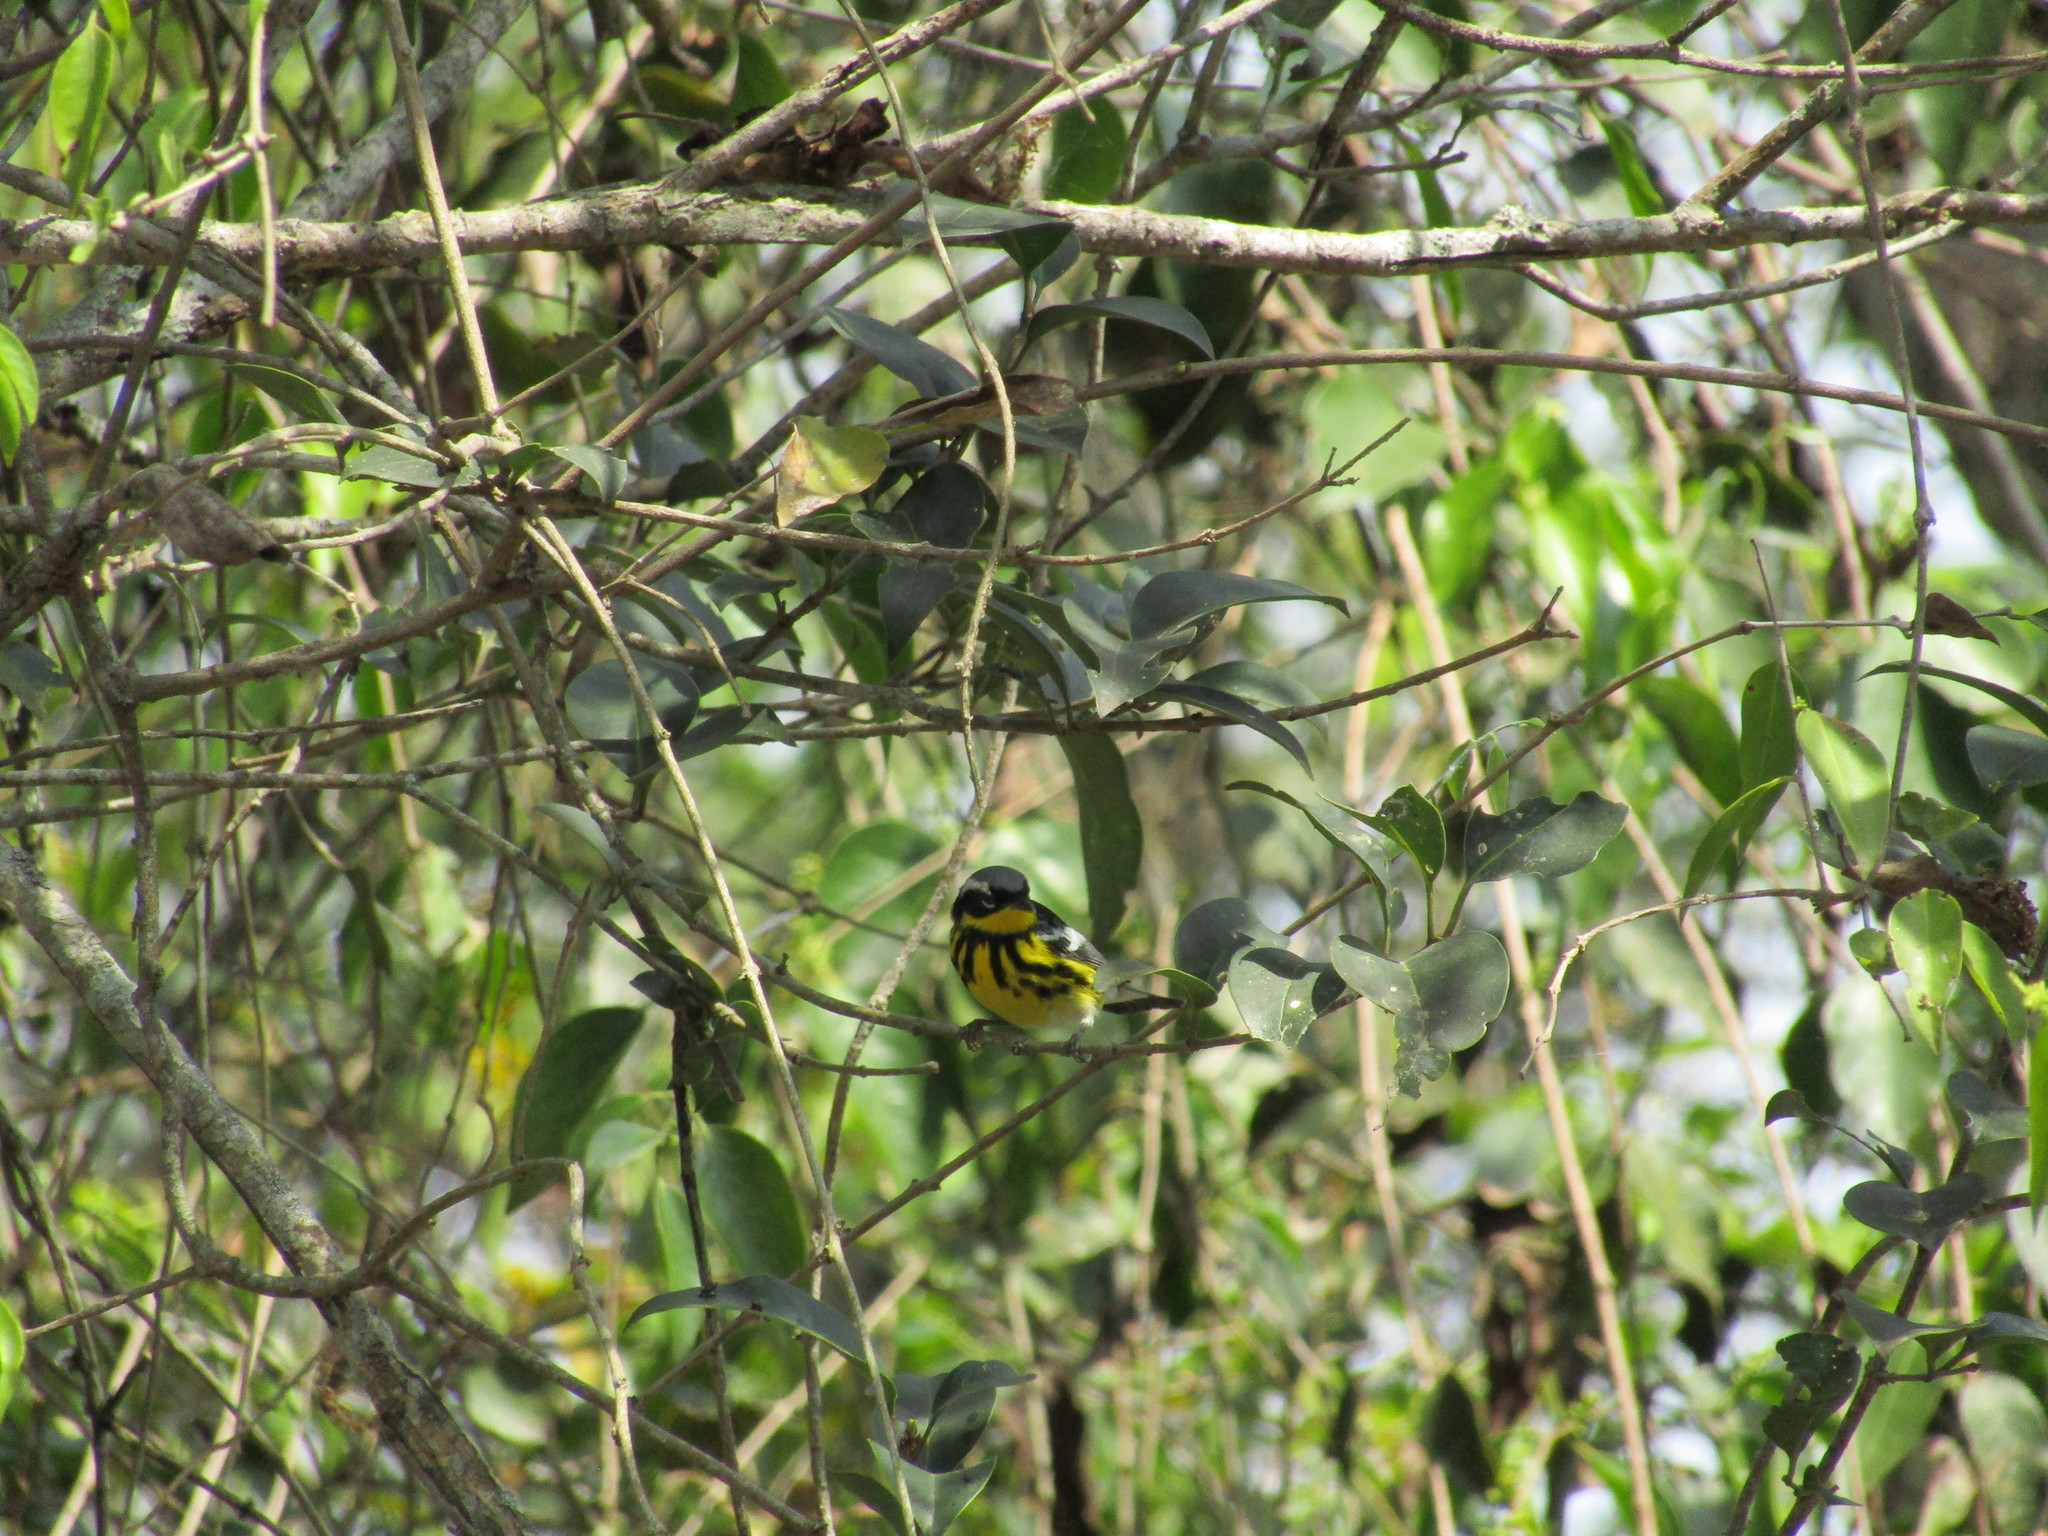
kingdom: Animalia
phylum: Chordata
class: Aves
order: Passeriformes
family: Parulidae
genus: Setophaga
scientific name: Setophaga magnolia
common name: Magnolia warbler
